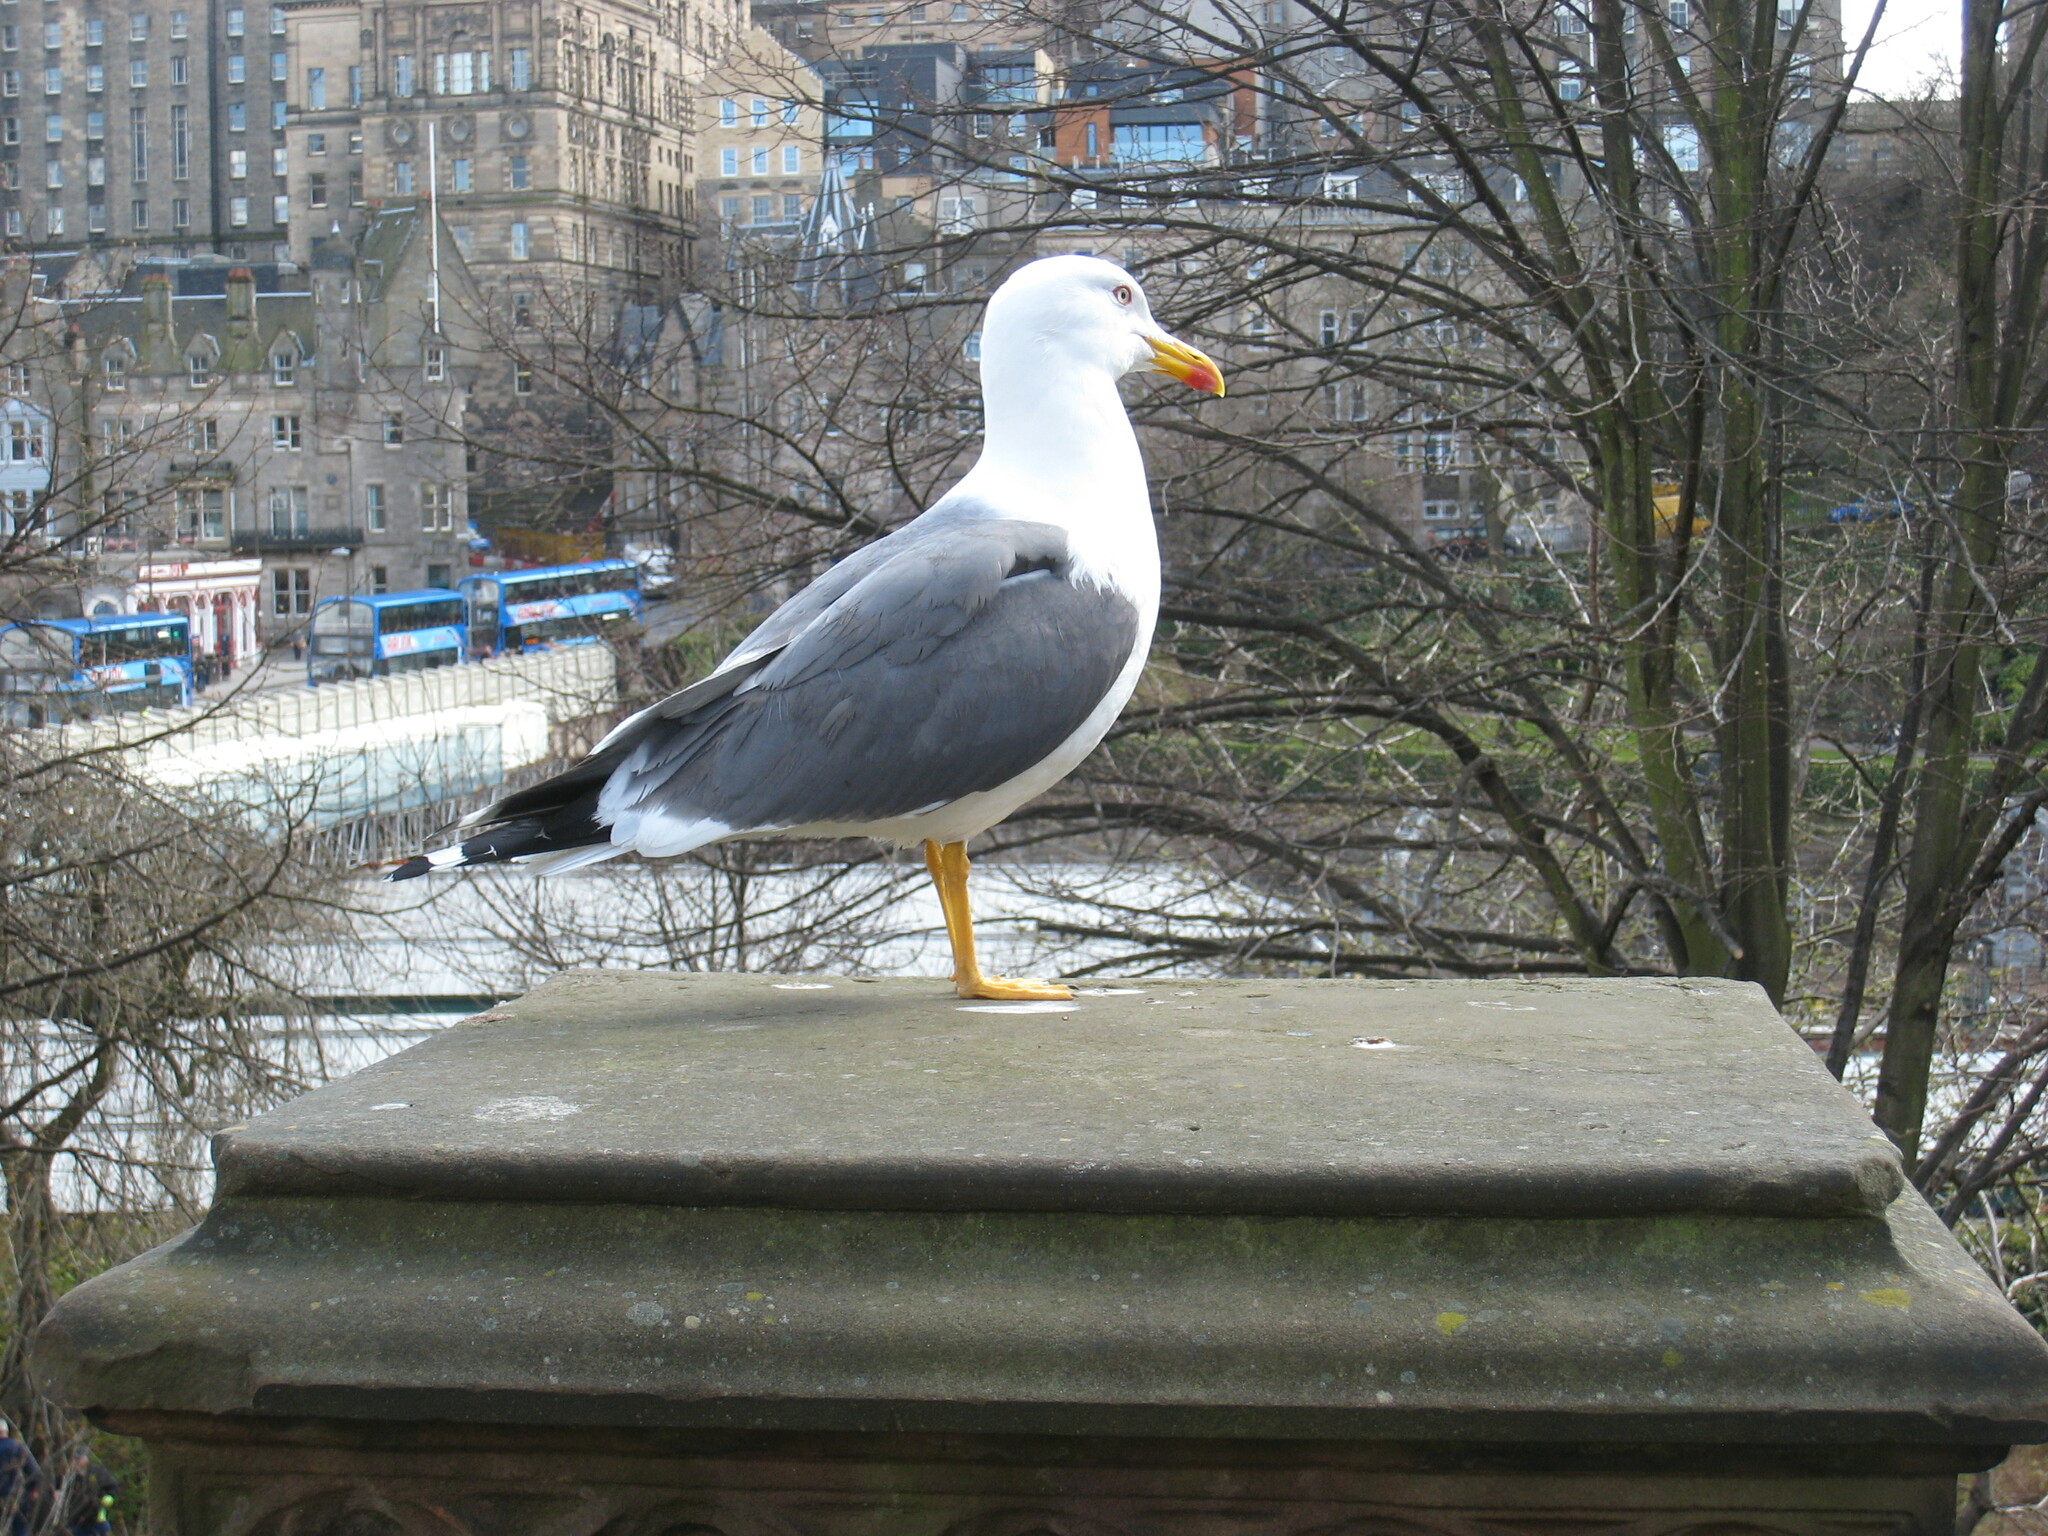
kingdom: Animalia
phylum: Chordata
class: Aves
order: Charadriiformes
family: Laridae
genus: Larus
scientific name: Larus fuscus
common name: Lesser black-backed gull
